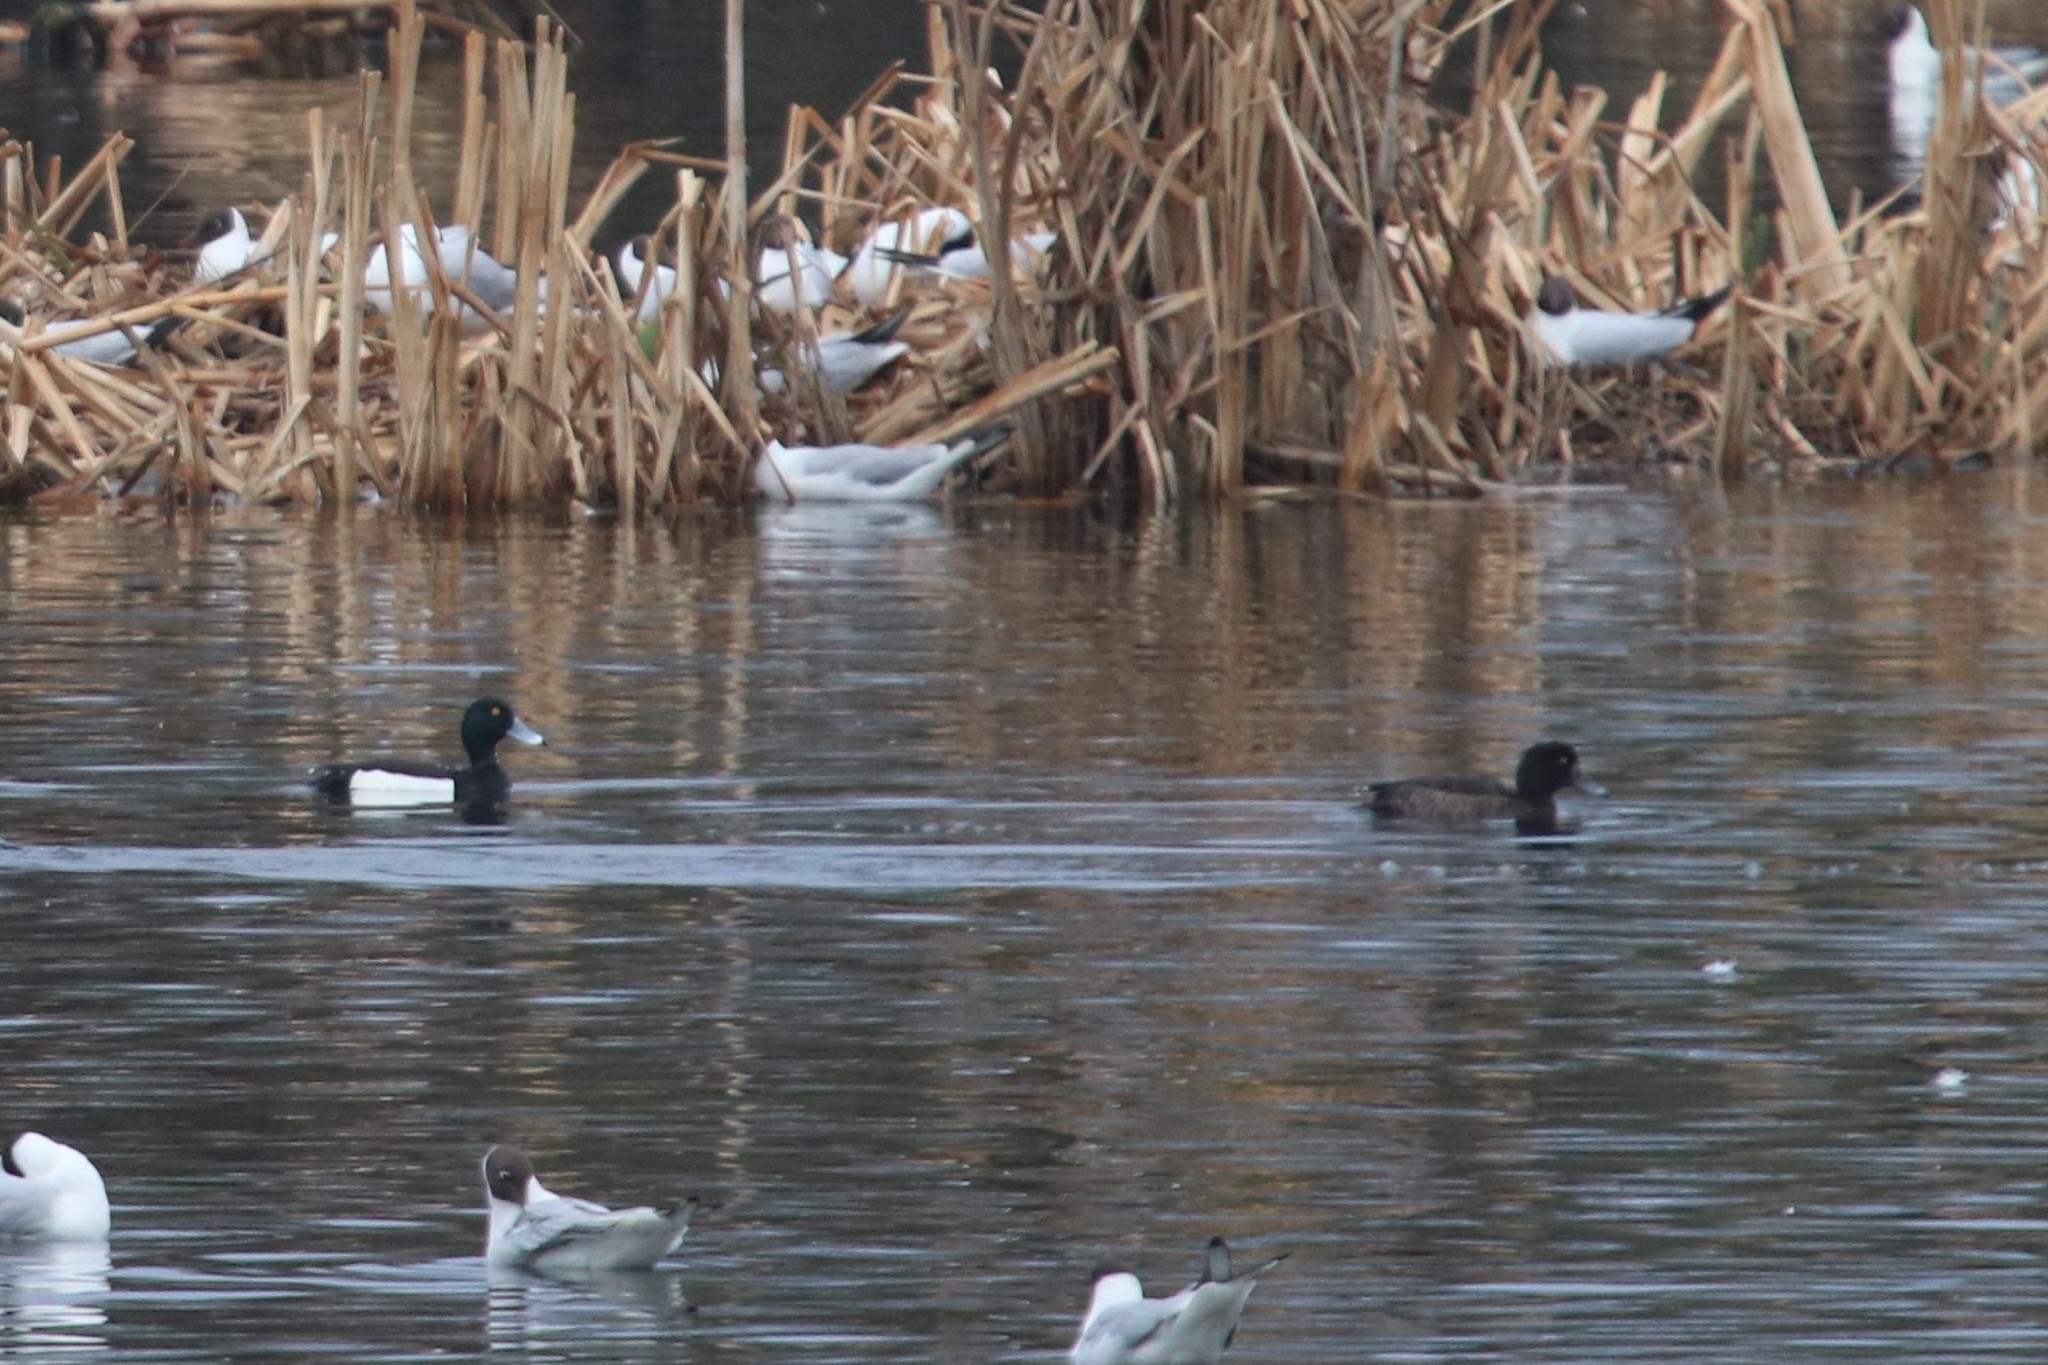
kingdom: Animalia
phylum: Chordata
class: Aves
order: Anseriformes
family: Anatidae
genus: Aythya
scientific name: Aythya fuligula
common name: Tufted duck
